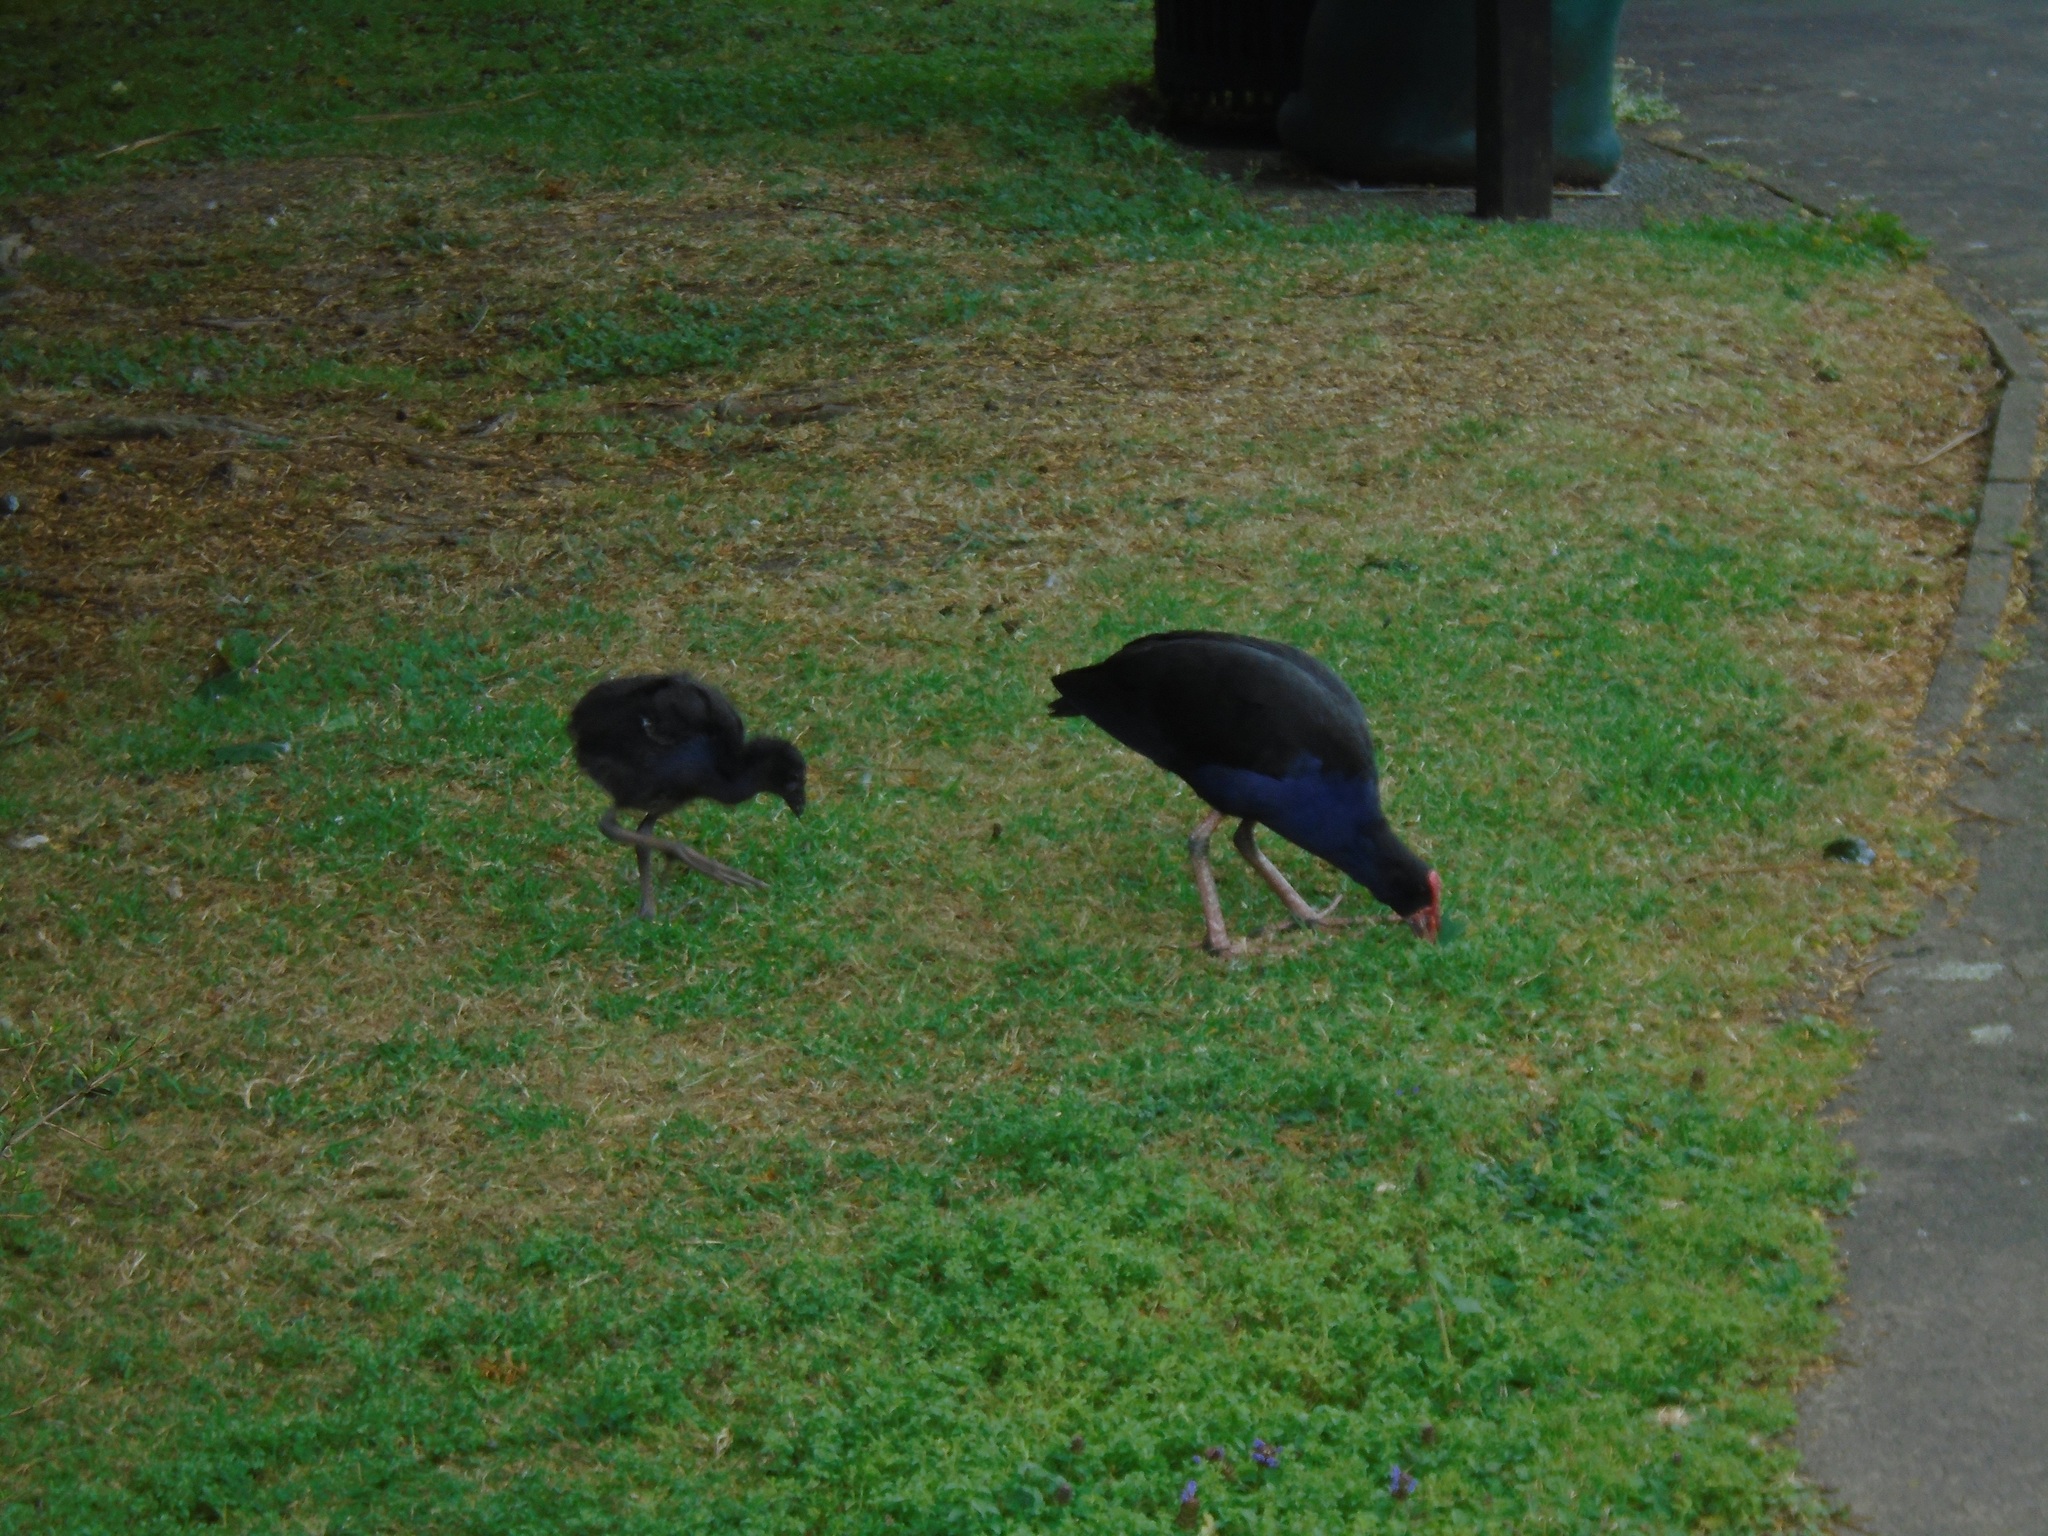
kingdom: Animalia
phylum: Chordata
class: Aves
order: Gruiformes
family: Rallidae
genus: Porphyrio
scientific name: Porphyrio melanotus
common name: Australasian swamphen
